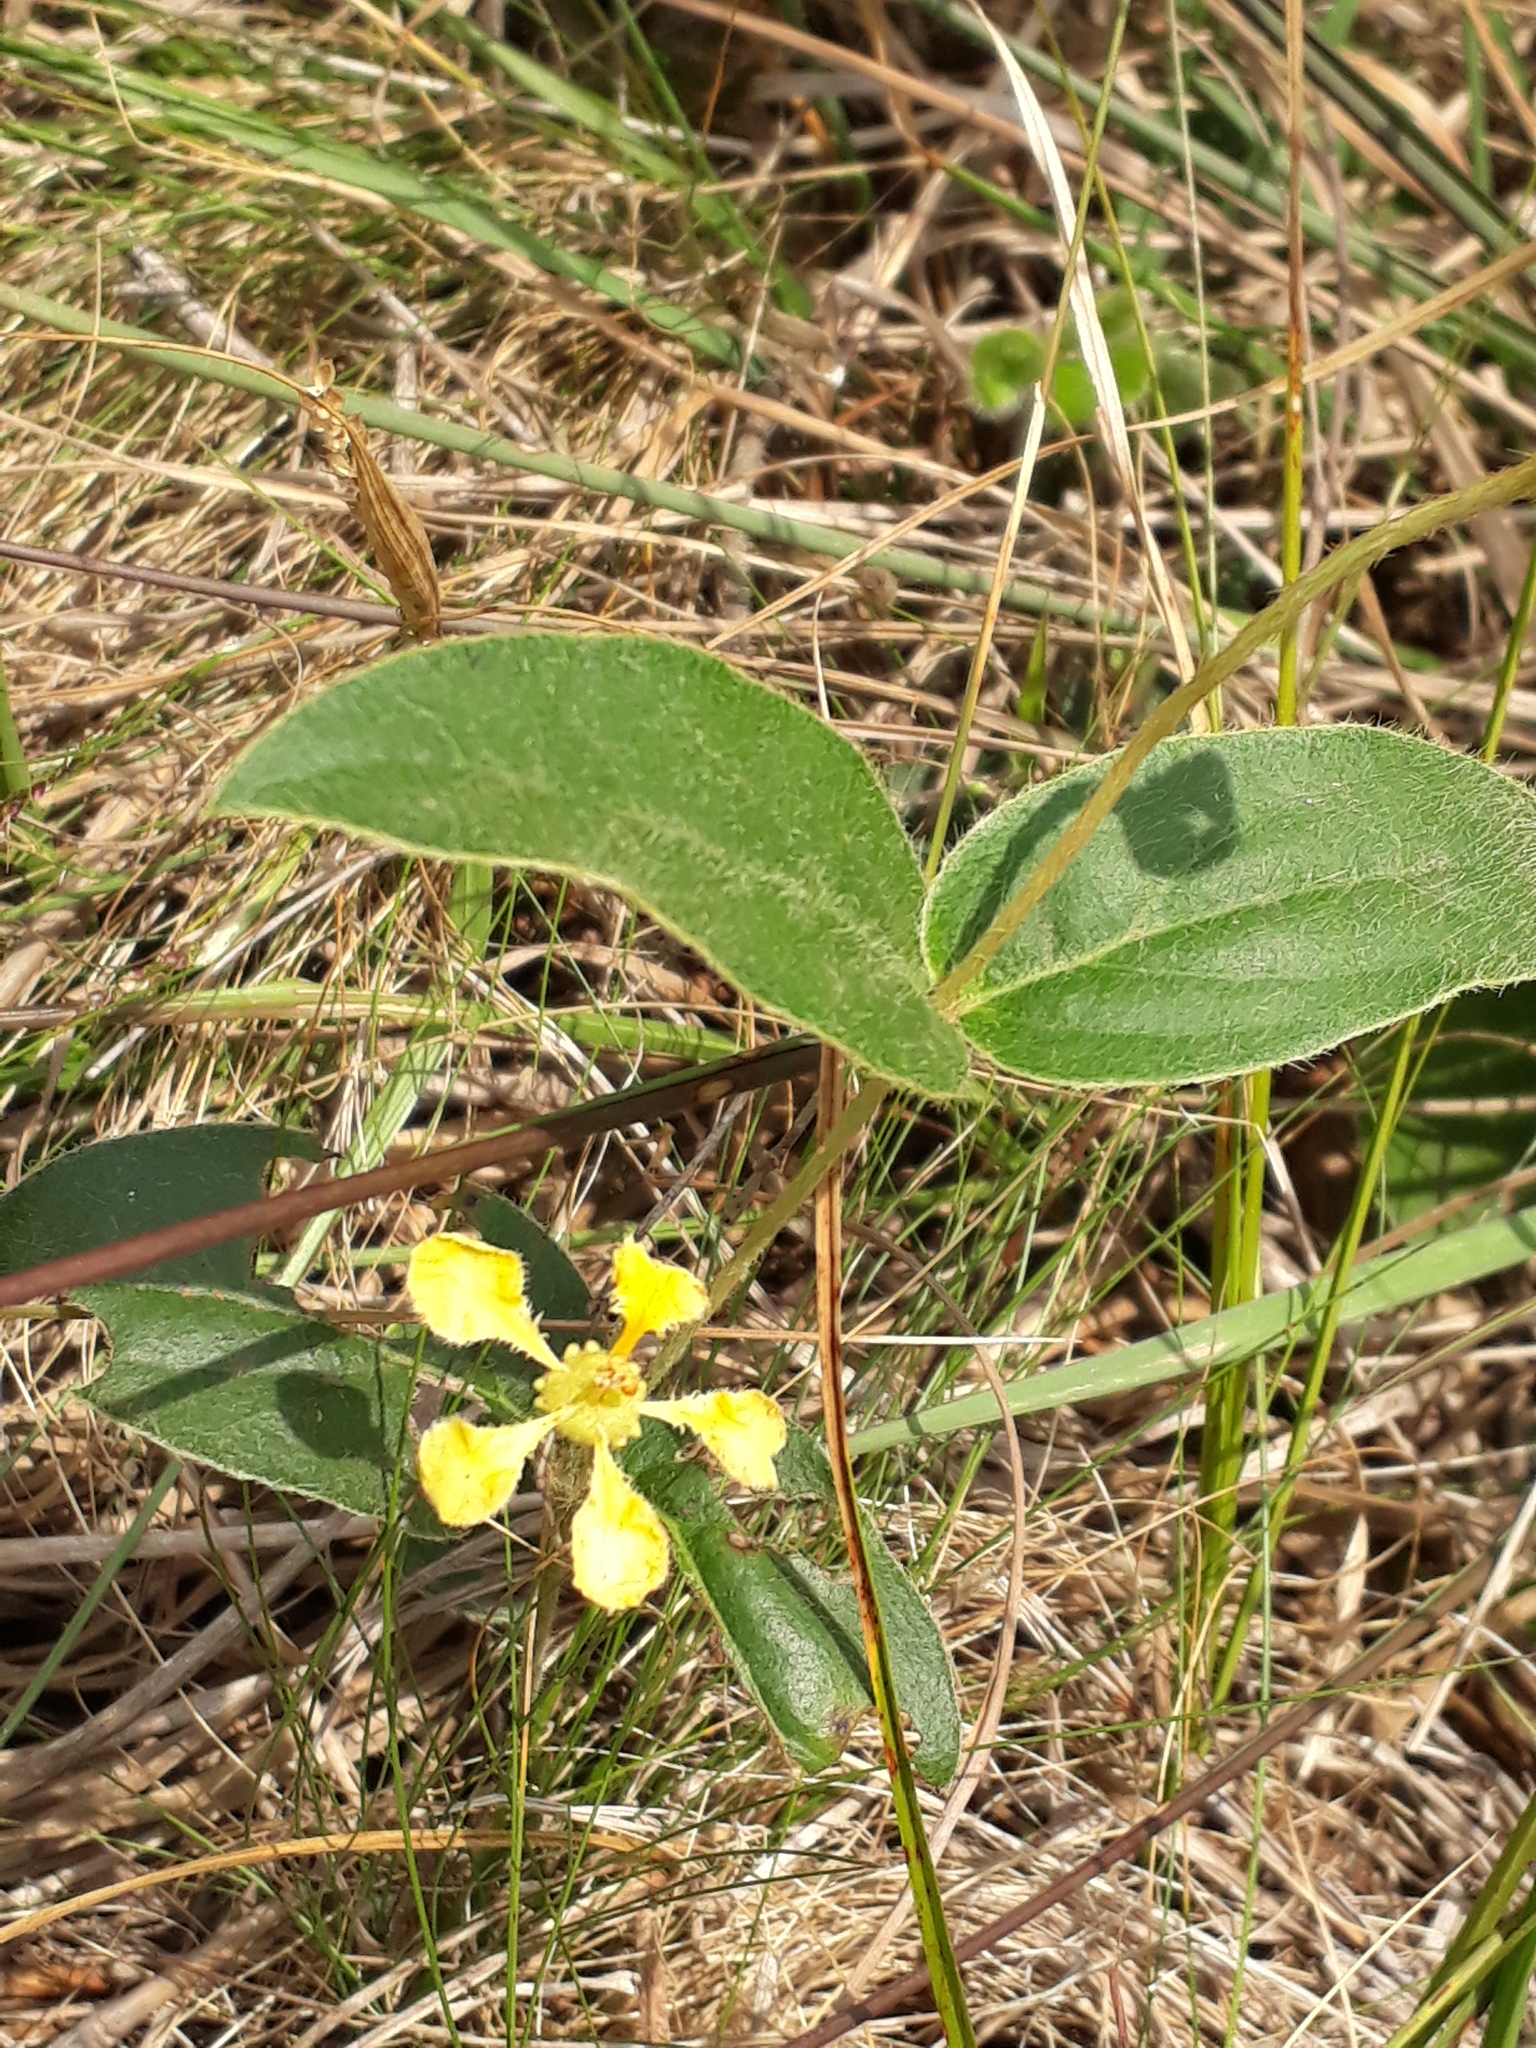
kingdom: Plantae
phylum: Tracheophyta
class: Magnoliopsida
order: Malpighiales
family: Malpighiaceae
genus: Aspicarpa
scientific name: Aspicarpa pulchella
